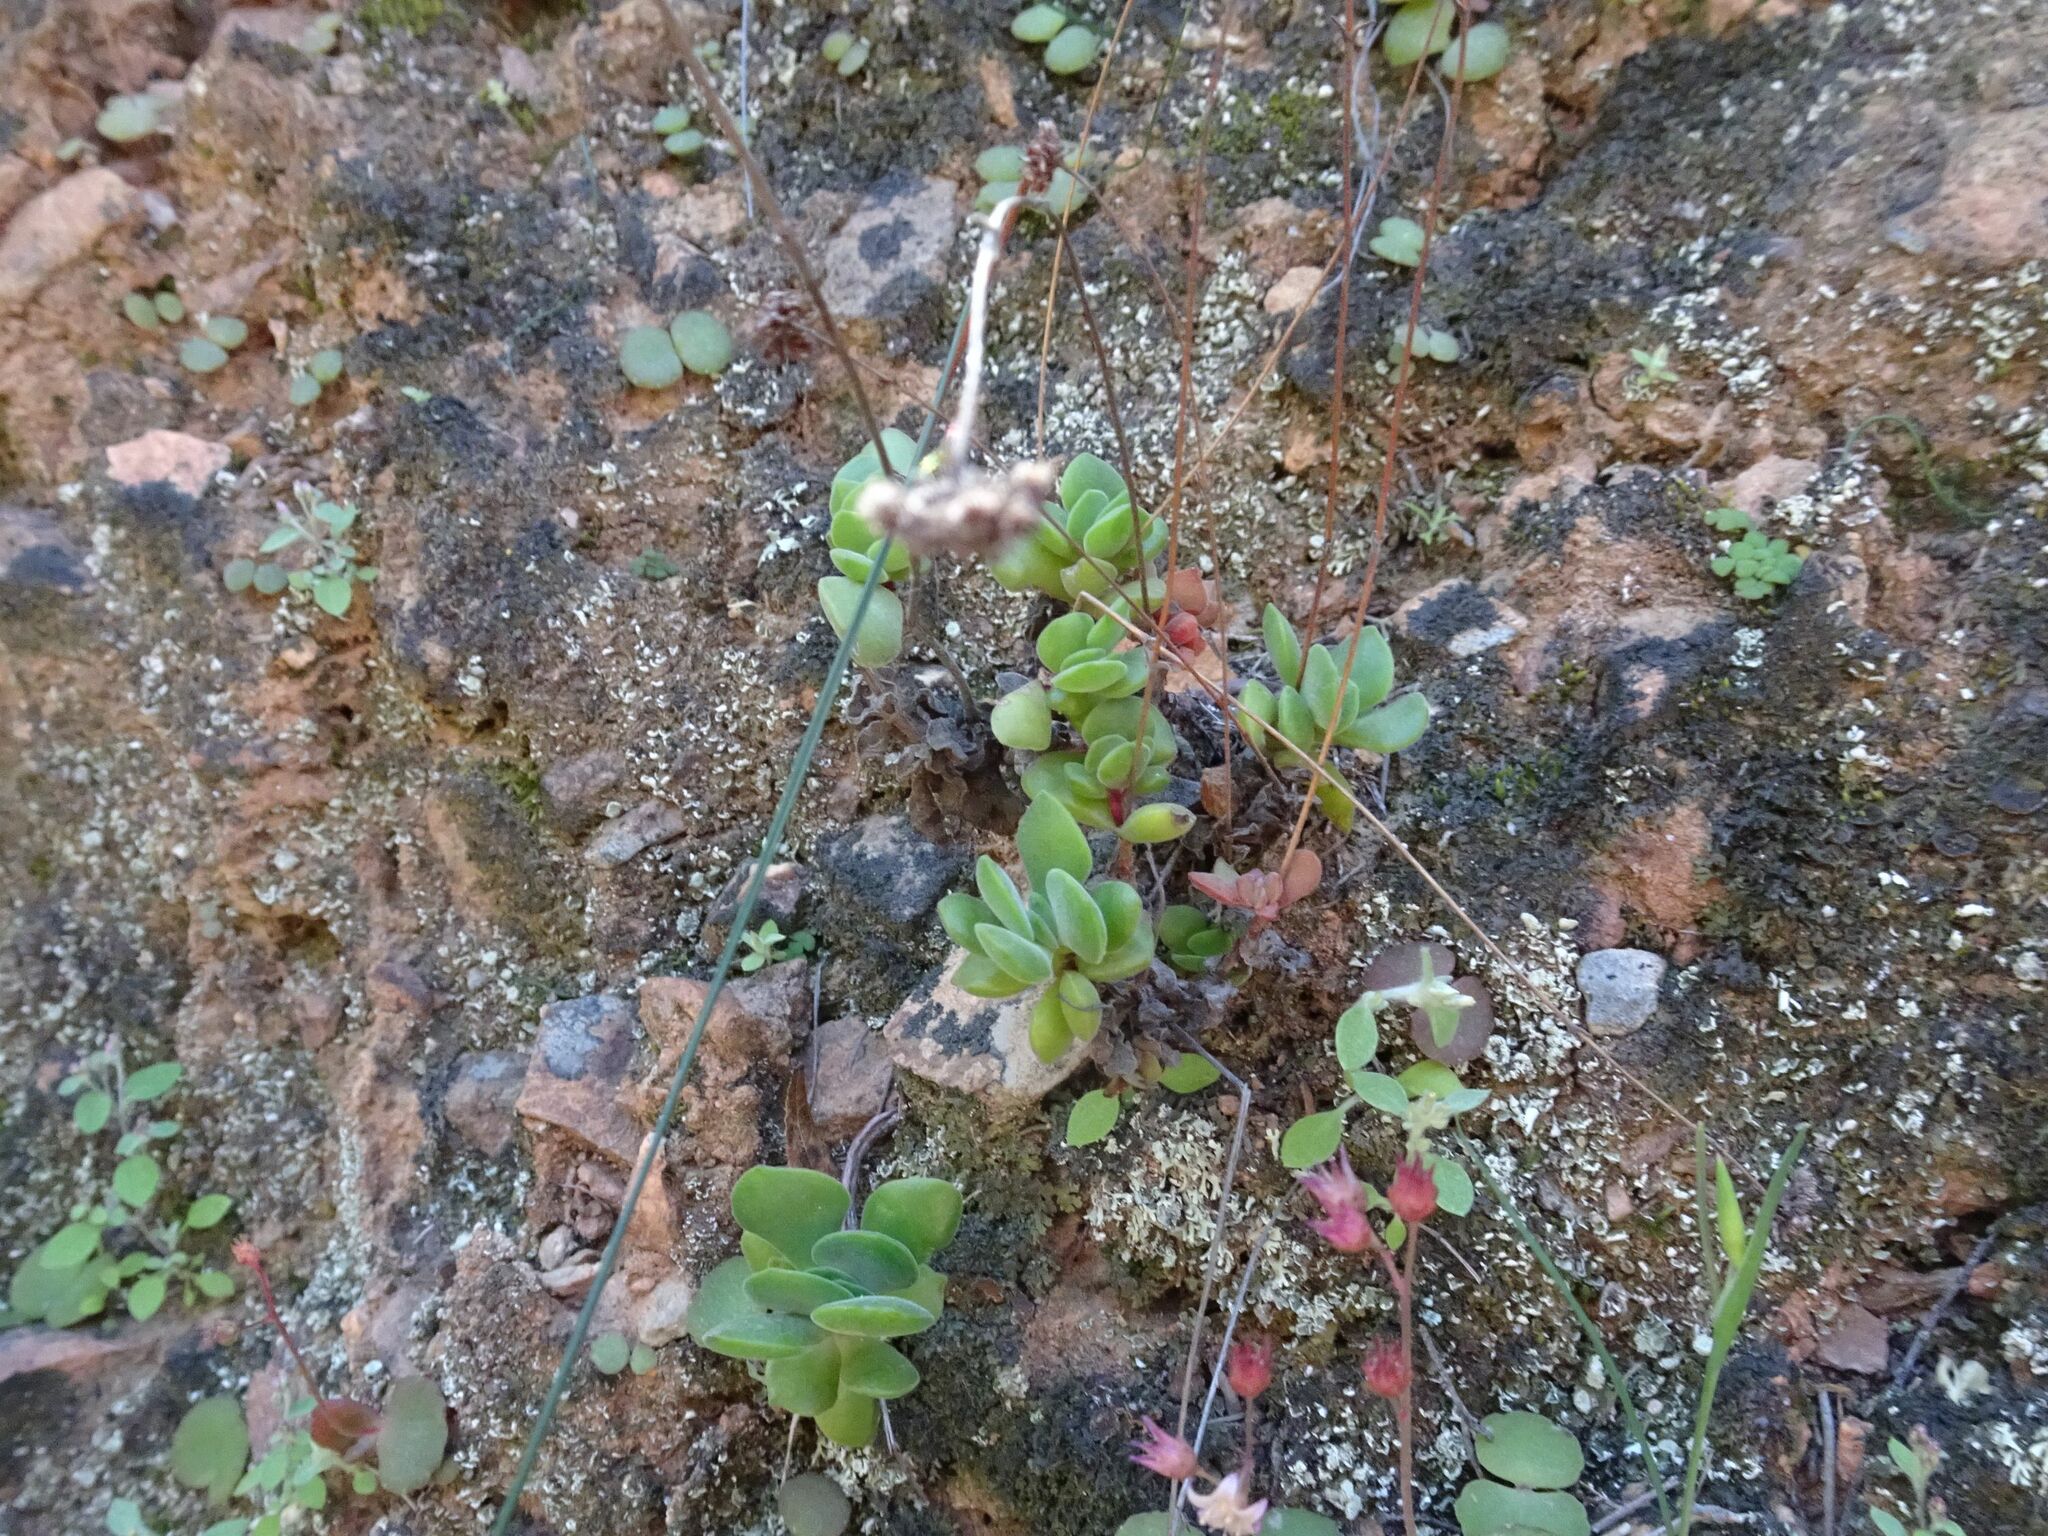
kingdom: Plantae
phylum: Tracheophyta
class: Magnoliopsida
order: Saxifragales
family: Crassulaceae
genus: Crassula
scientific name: Crassula pubescens
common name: Jersey pigmyweed
